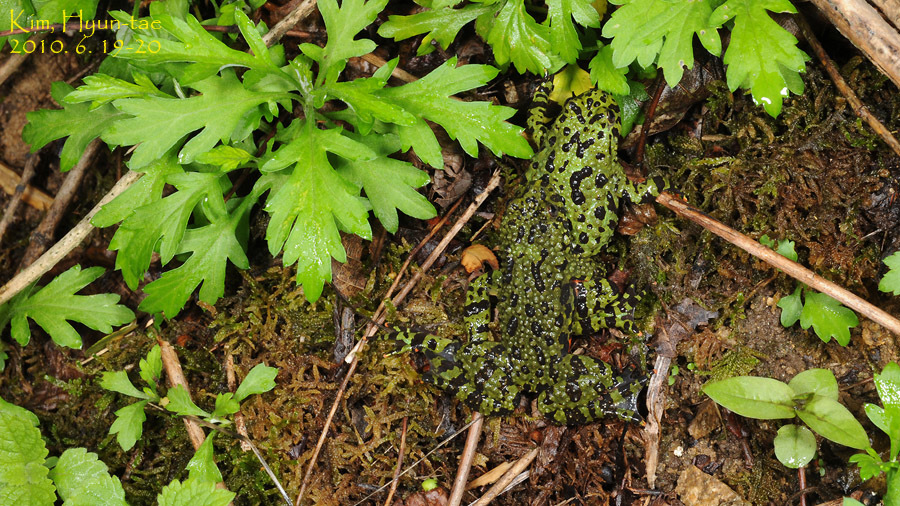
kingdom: Animalia
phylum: Chordata
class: Amphibia
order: Anura
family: Bombinatoridae
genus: Bombina
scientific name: Bombina orientalis
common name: Oriental firebelly toad
